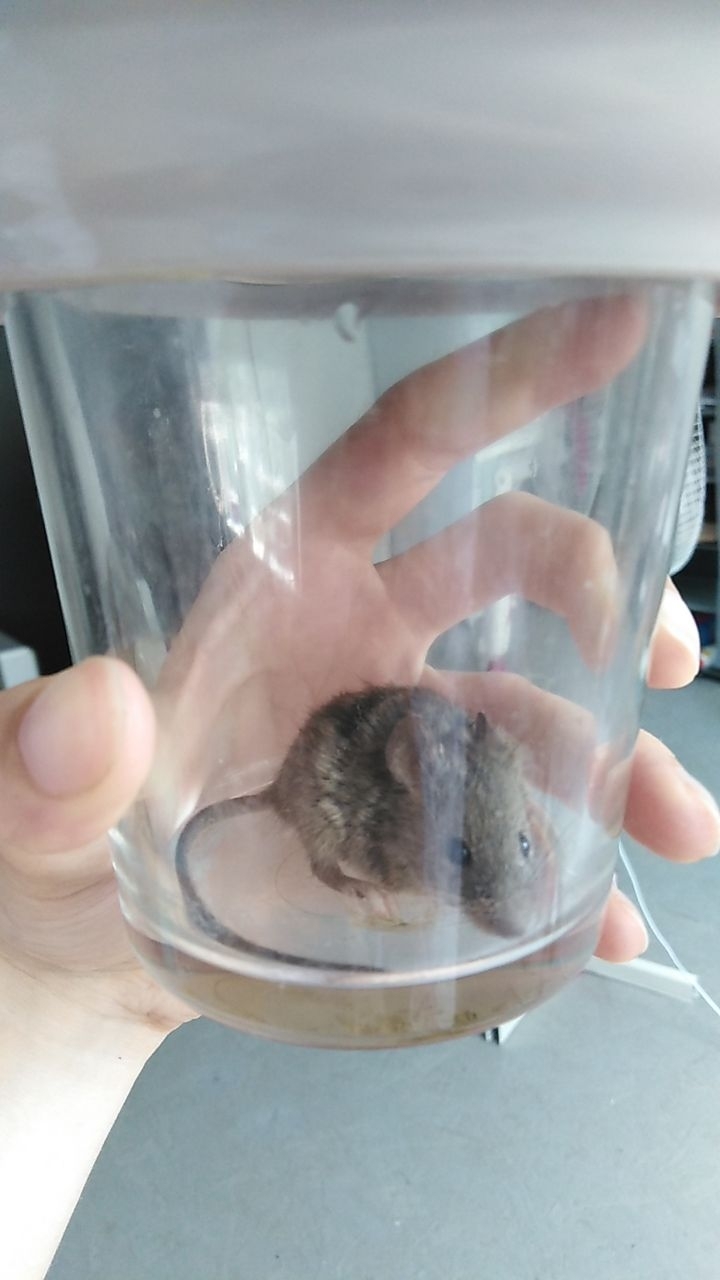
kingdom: Animalia
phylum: Chordata
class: Mammalia
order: Rodentia
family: Muridae
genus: Mus
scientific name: Mus musculus
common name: House mouse
